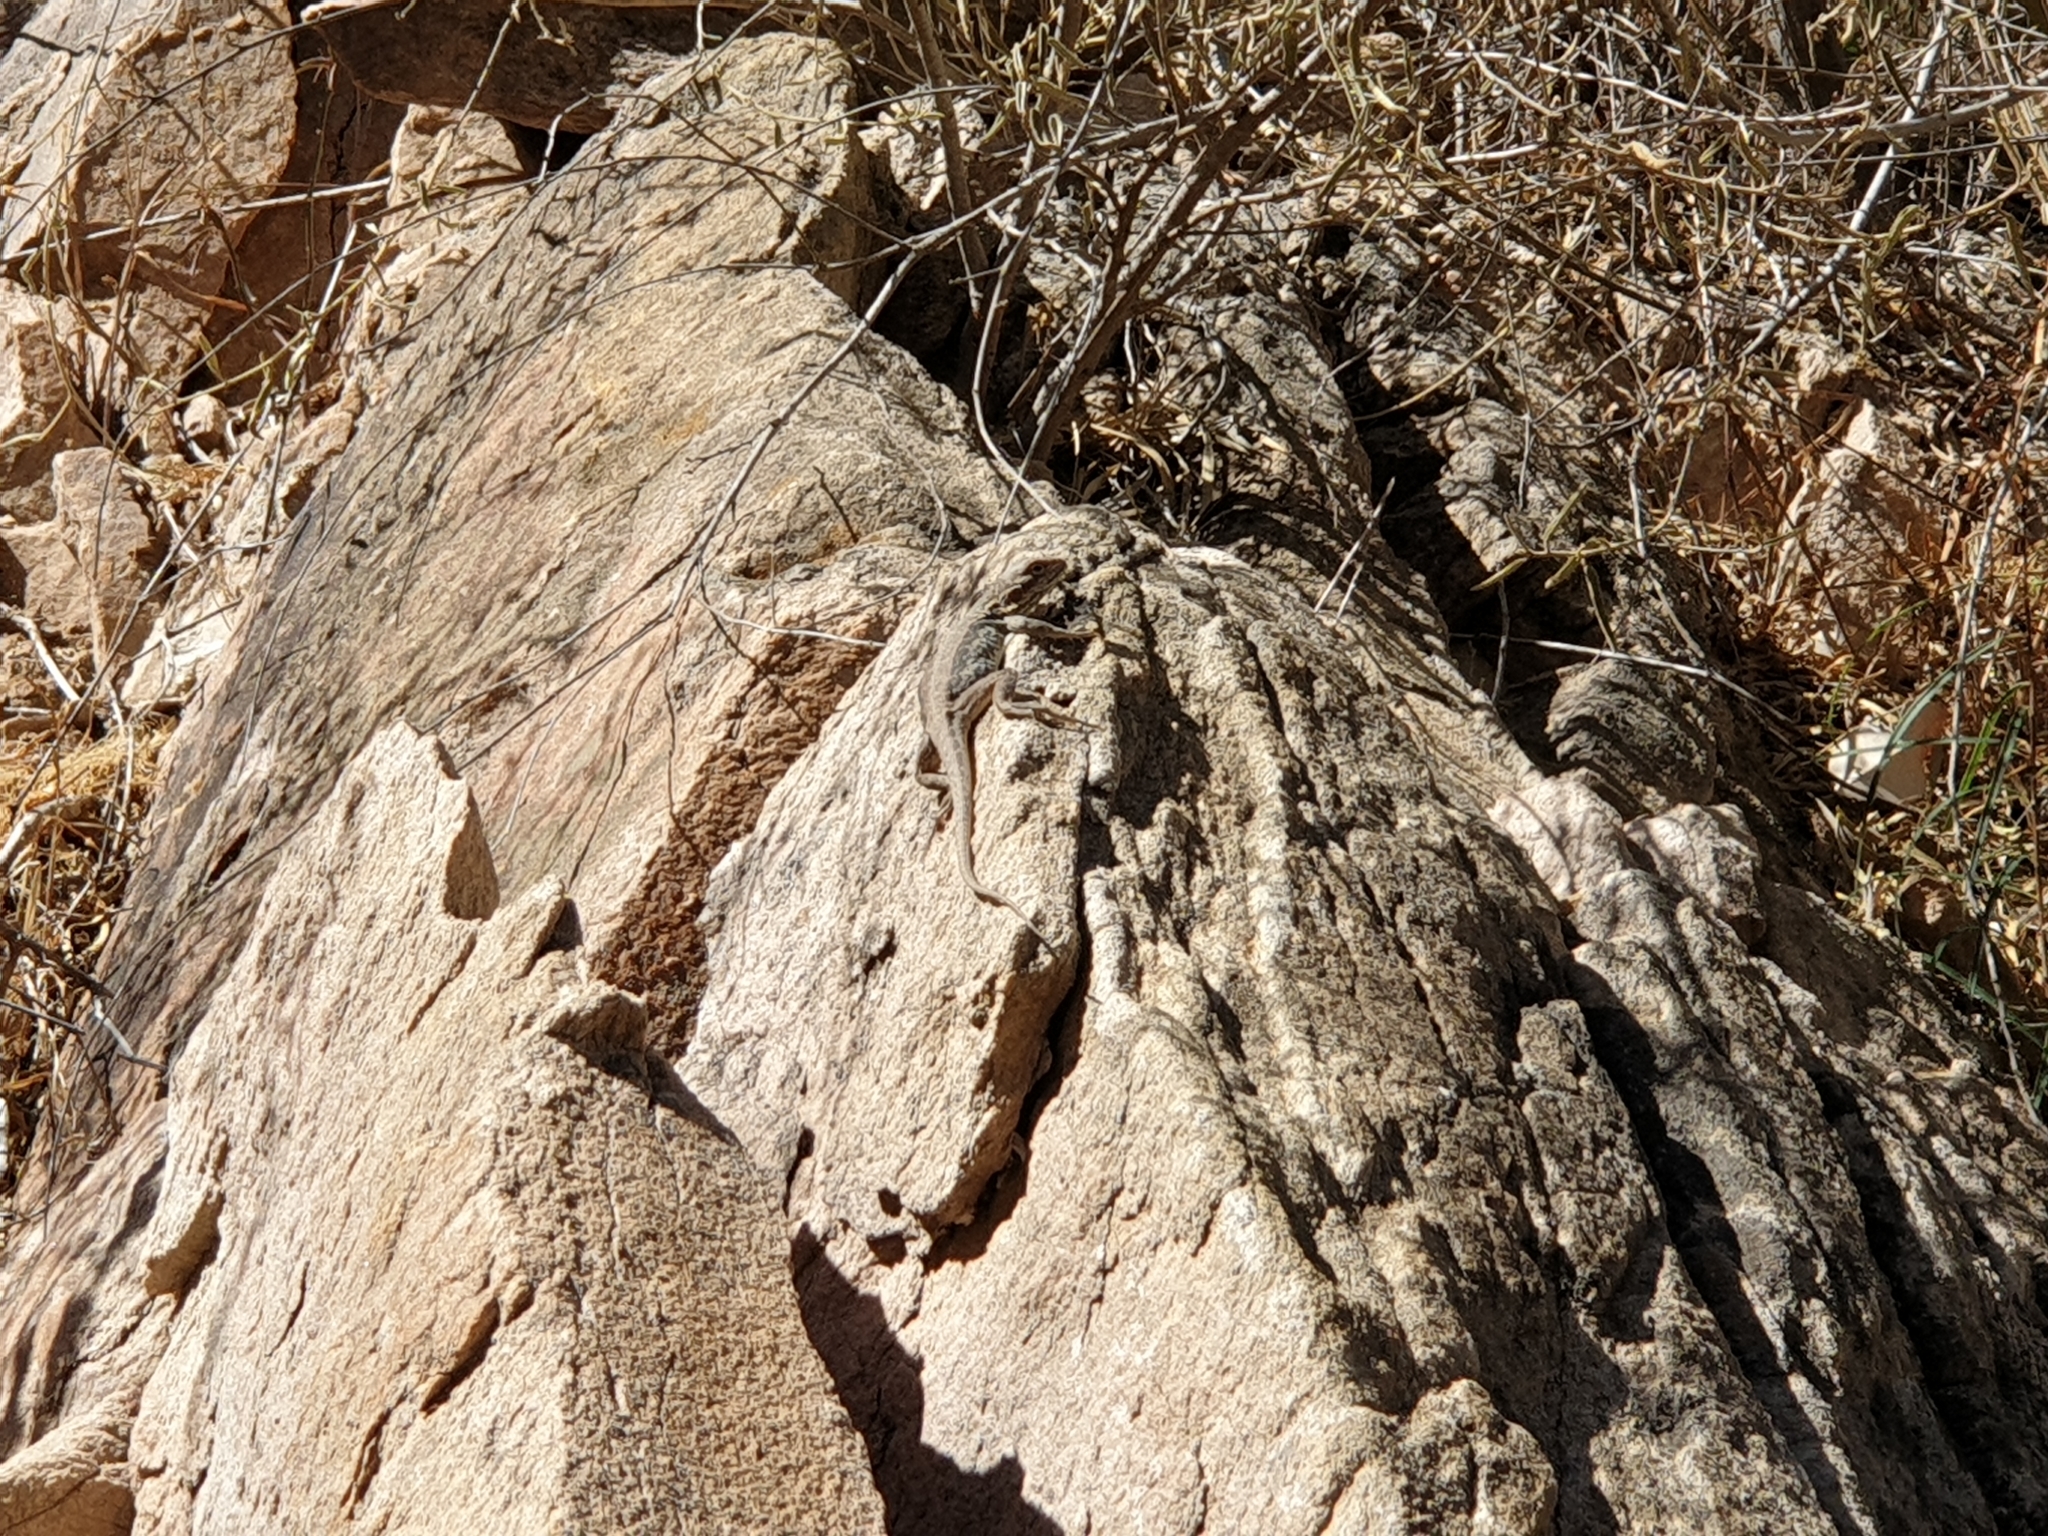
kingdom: Animalia
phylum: Chordata
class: Squamata
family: Agamidae
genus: Ctenophorus
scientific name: Ctenophorus modestus
